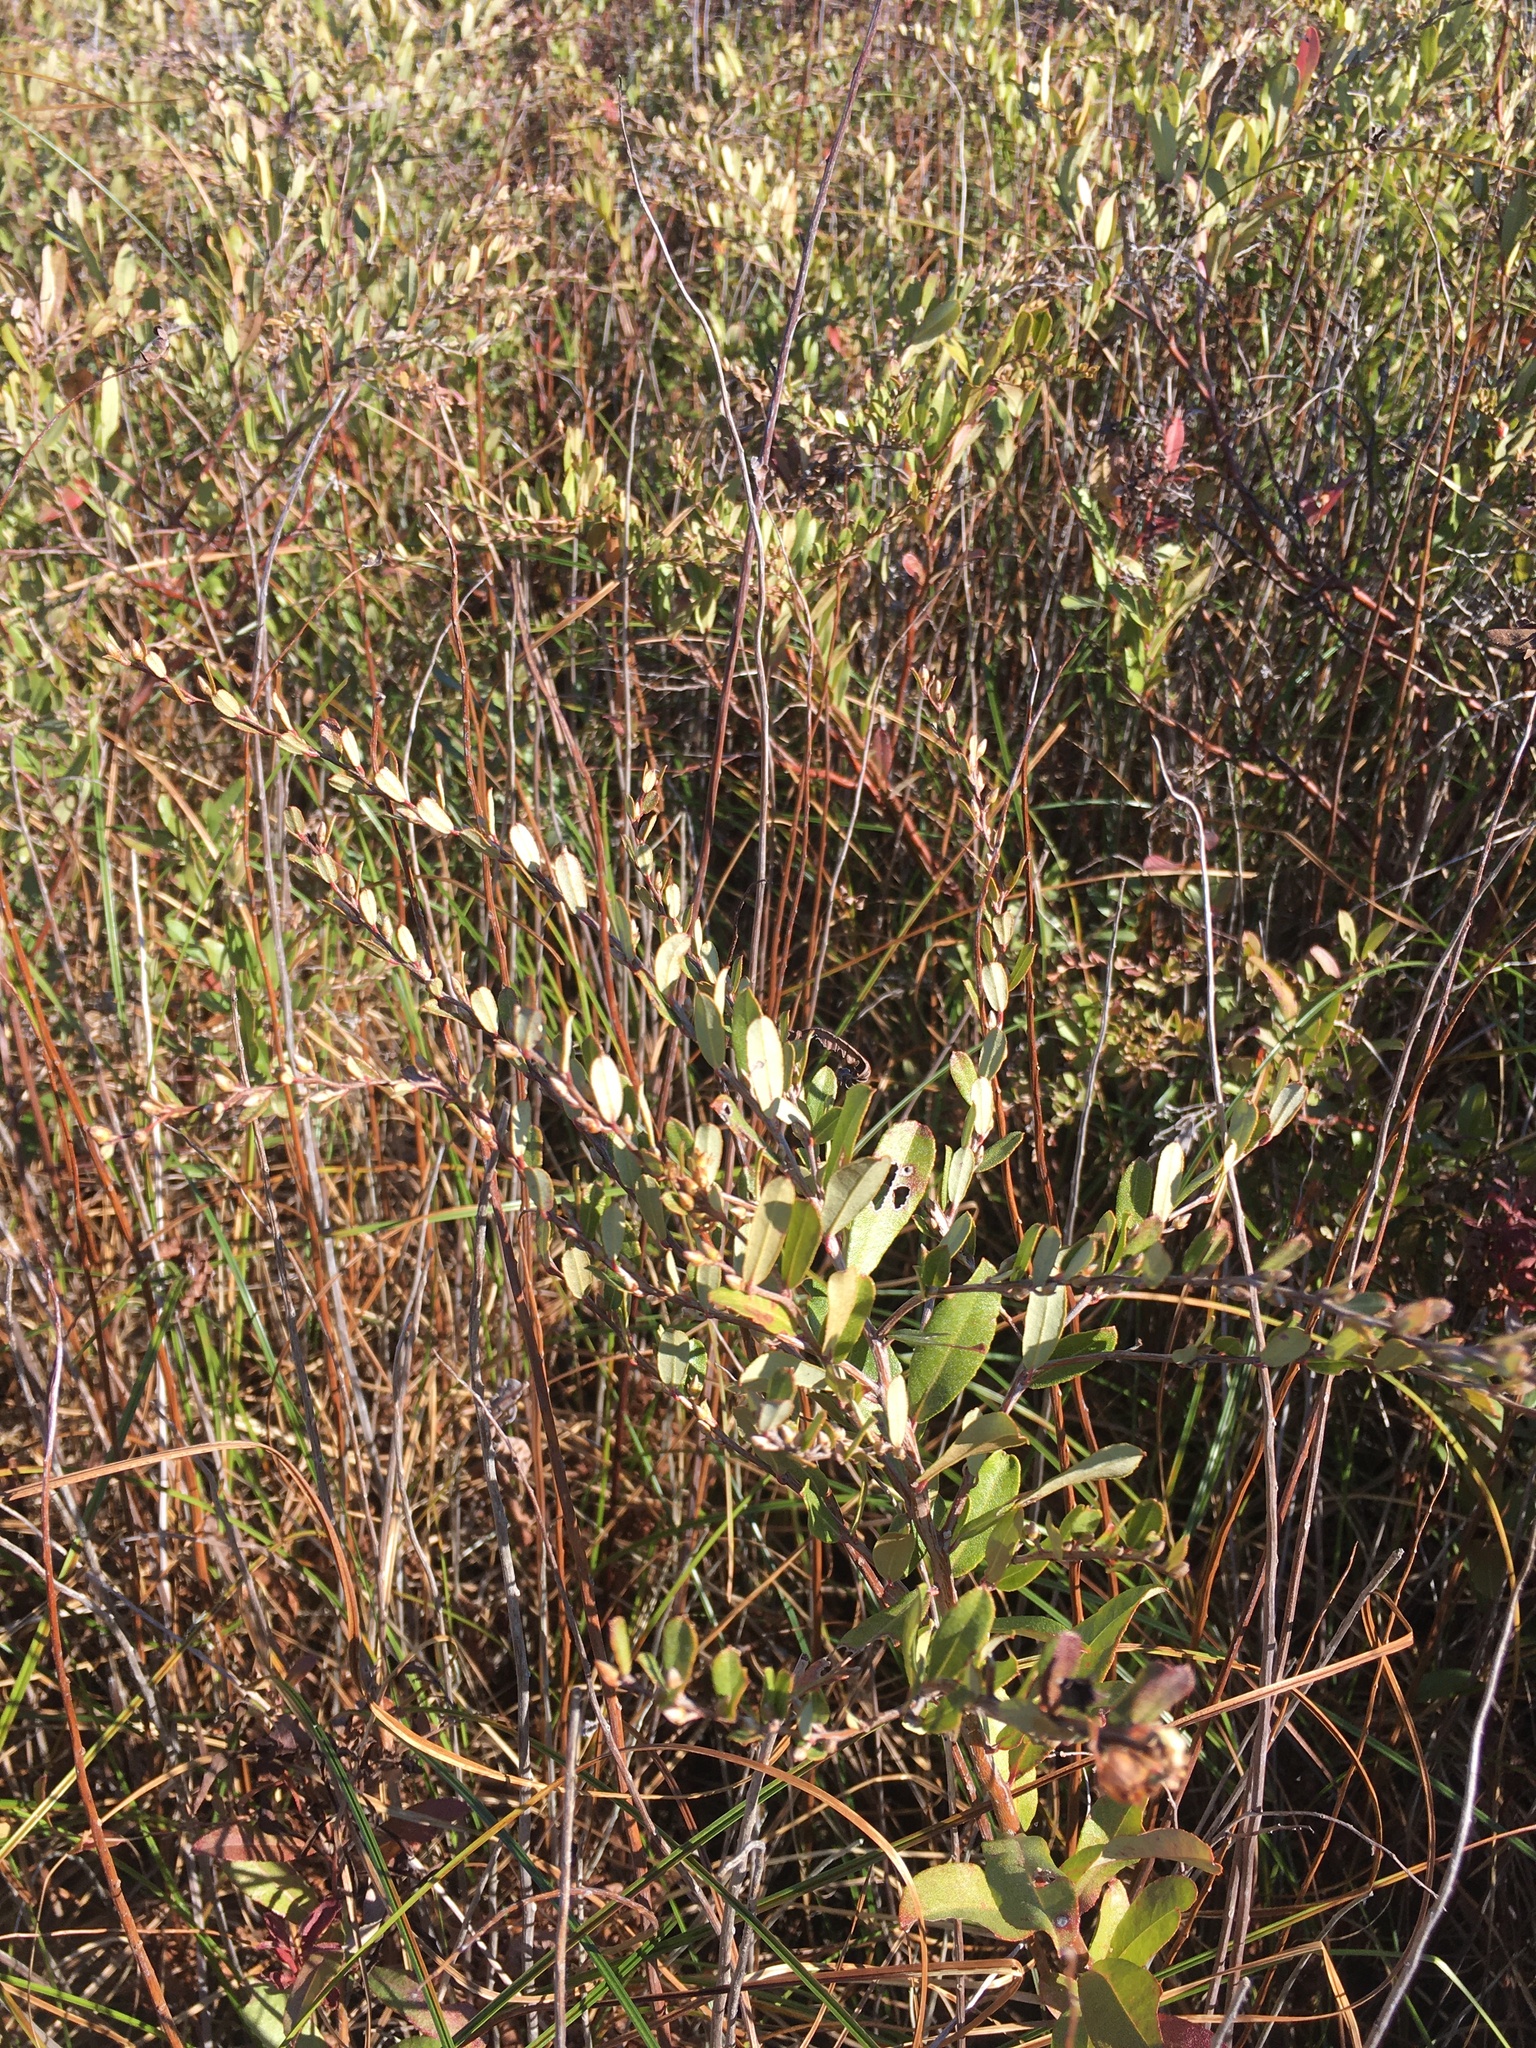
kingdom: Plantae
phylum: Tracheophyta
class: Magnoliopsida
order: Ericales
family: Ericaceae
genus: Chamaedaphne
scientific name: Chamaedaphne calyculata
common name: Leatherleaf
